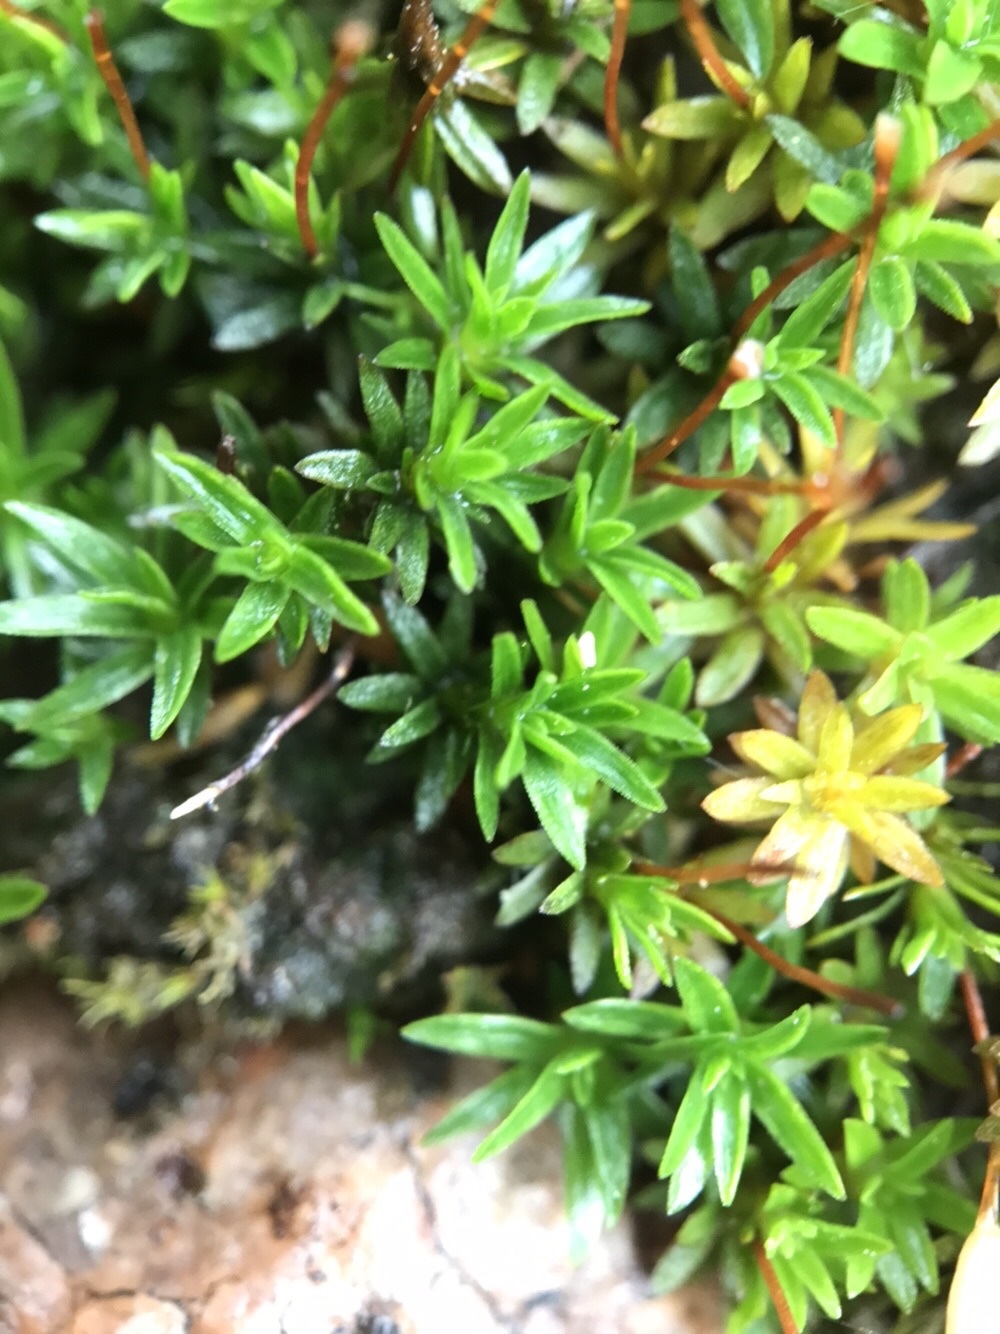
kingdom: Plantae
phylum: Bryophyta
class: Polytrichopsida
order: Polytrichales
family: Polytrichaceae
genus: Pogonatum
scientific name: Pogonatum aloides
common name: Aloe haircap
